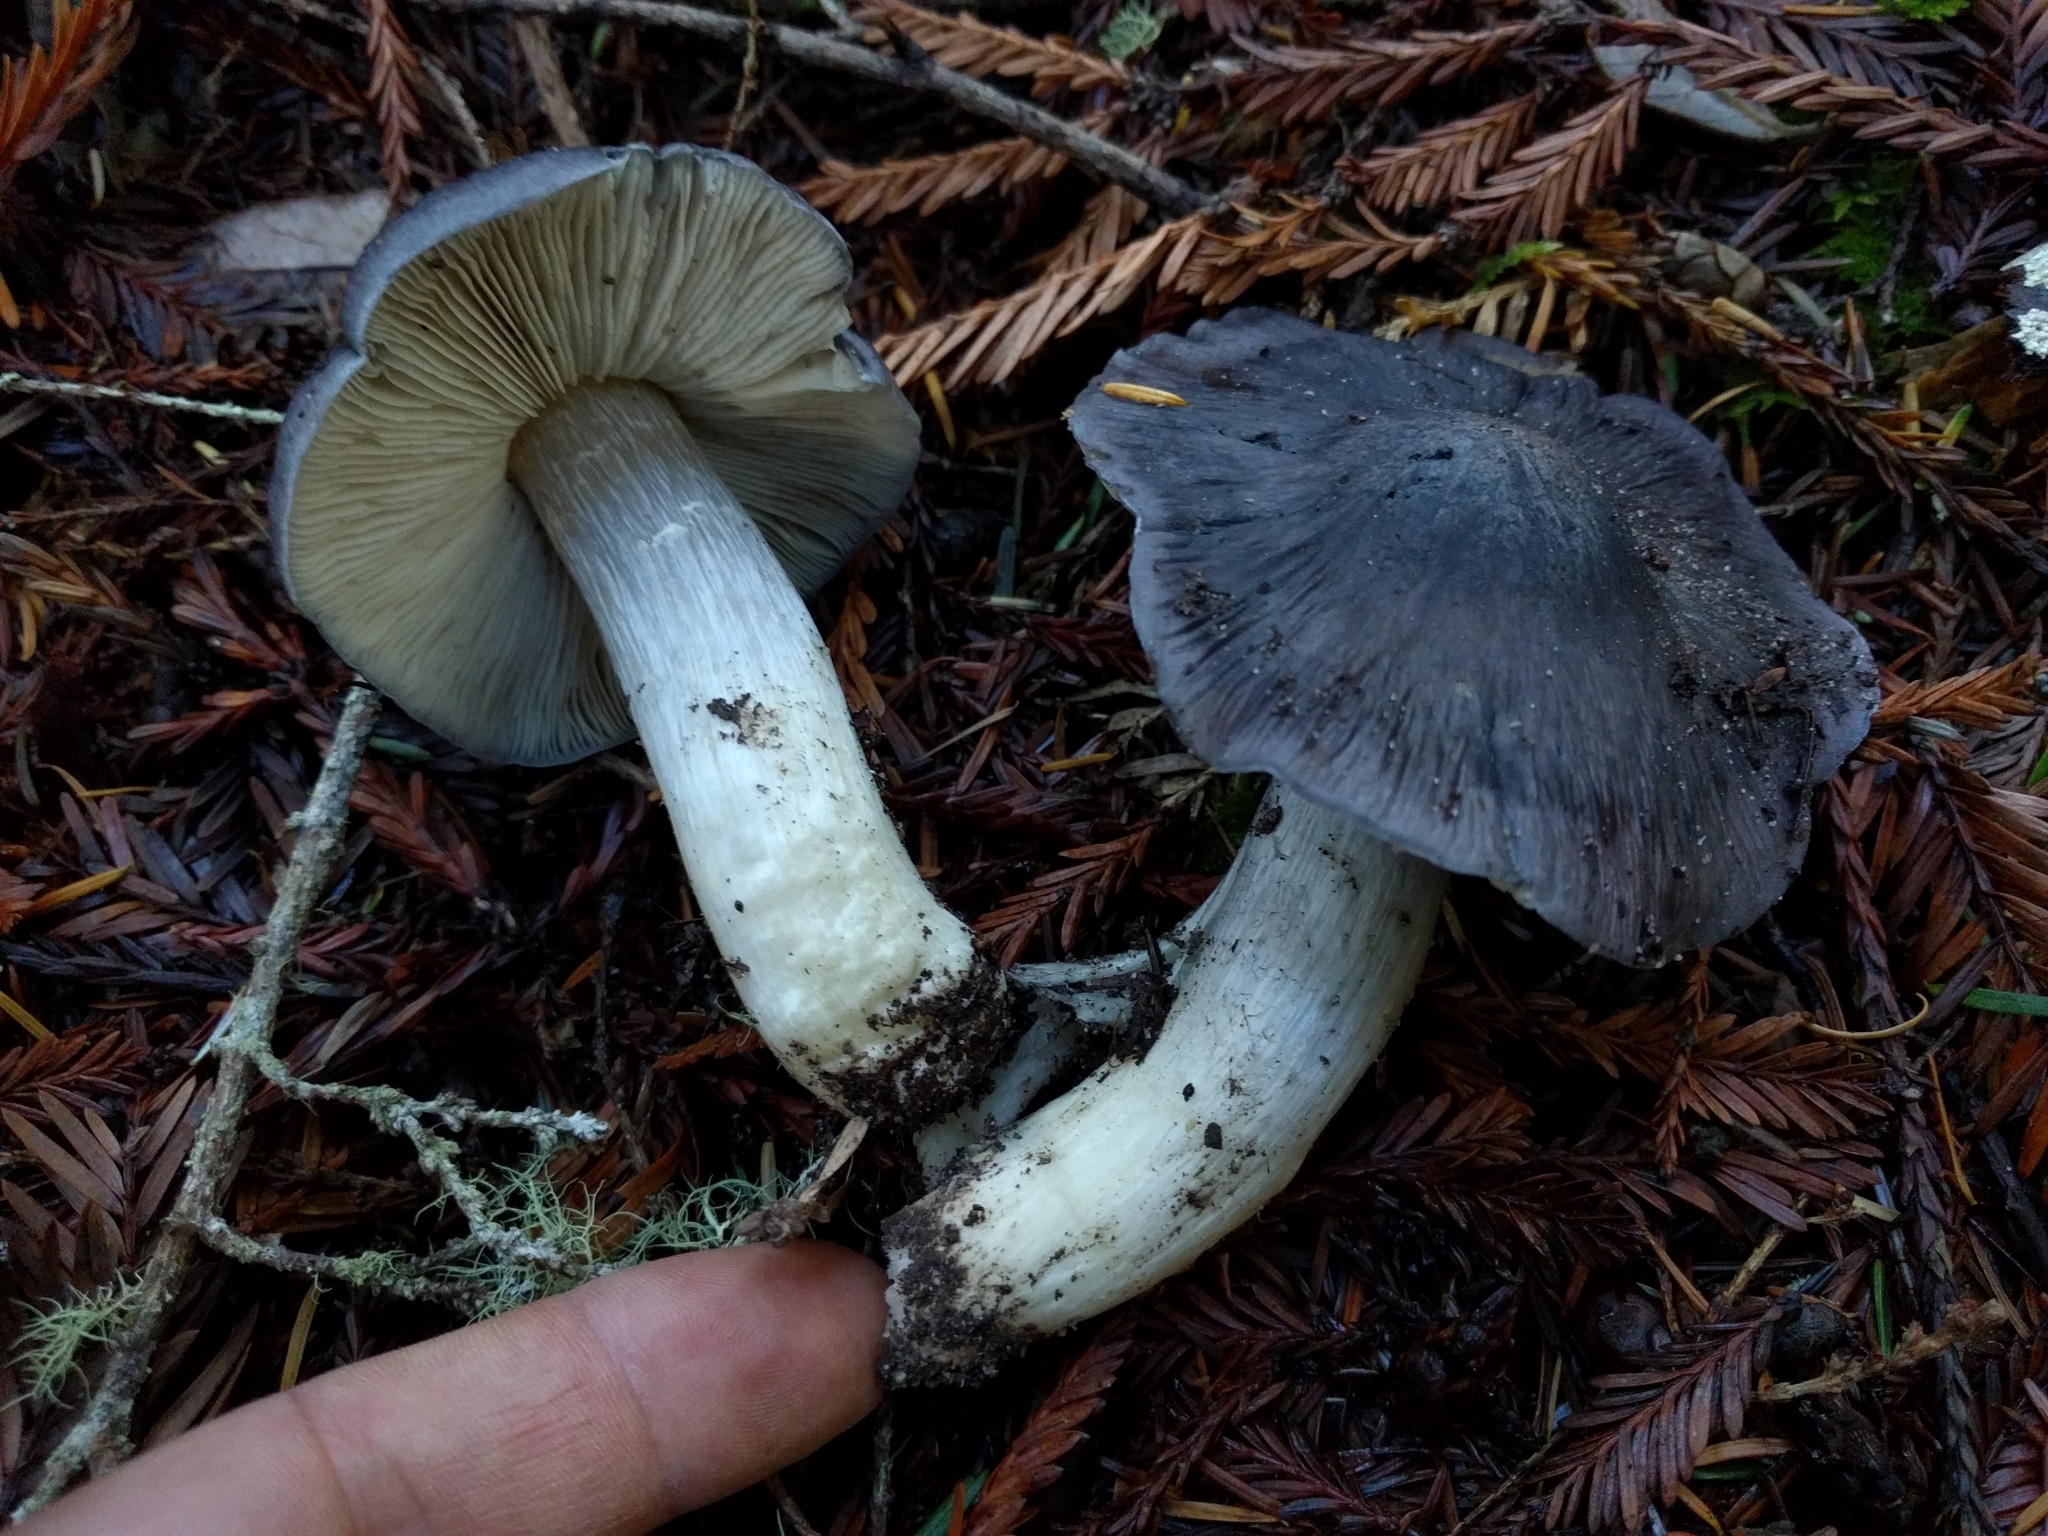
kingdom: Fungi
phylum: Basidiomycota
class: Agaricomycetes
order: Agaricales
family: Entolomataceae
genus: Entoloma
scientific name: Entoloma medianox
